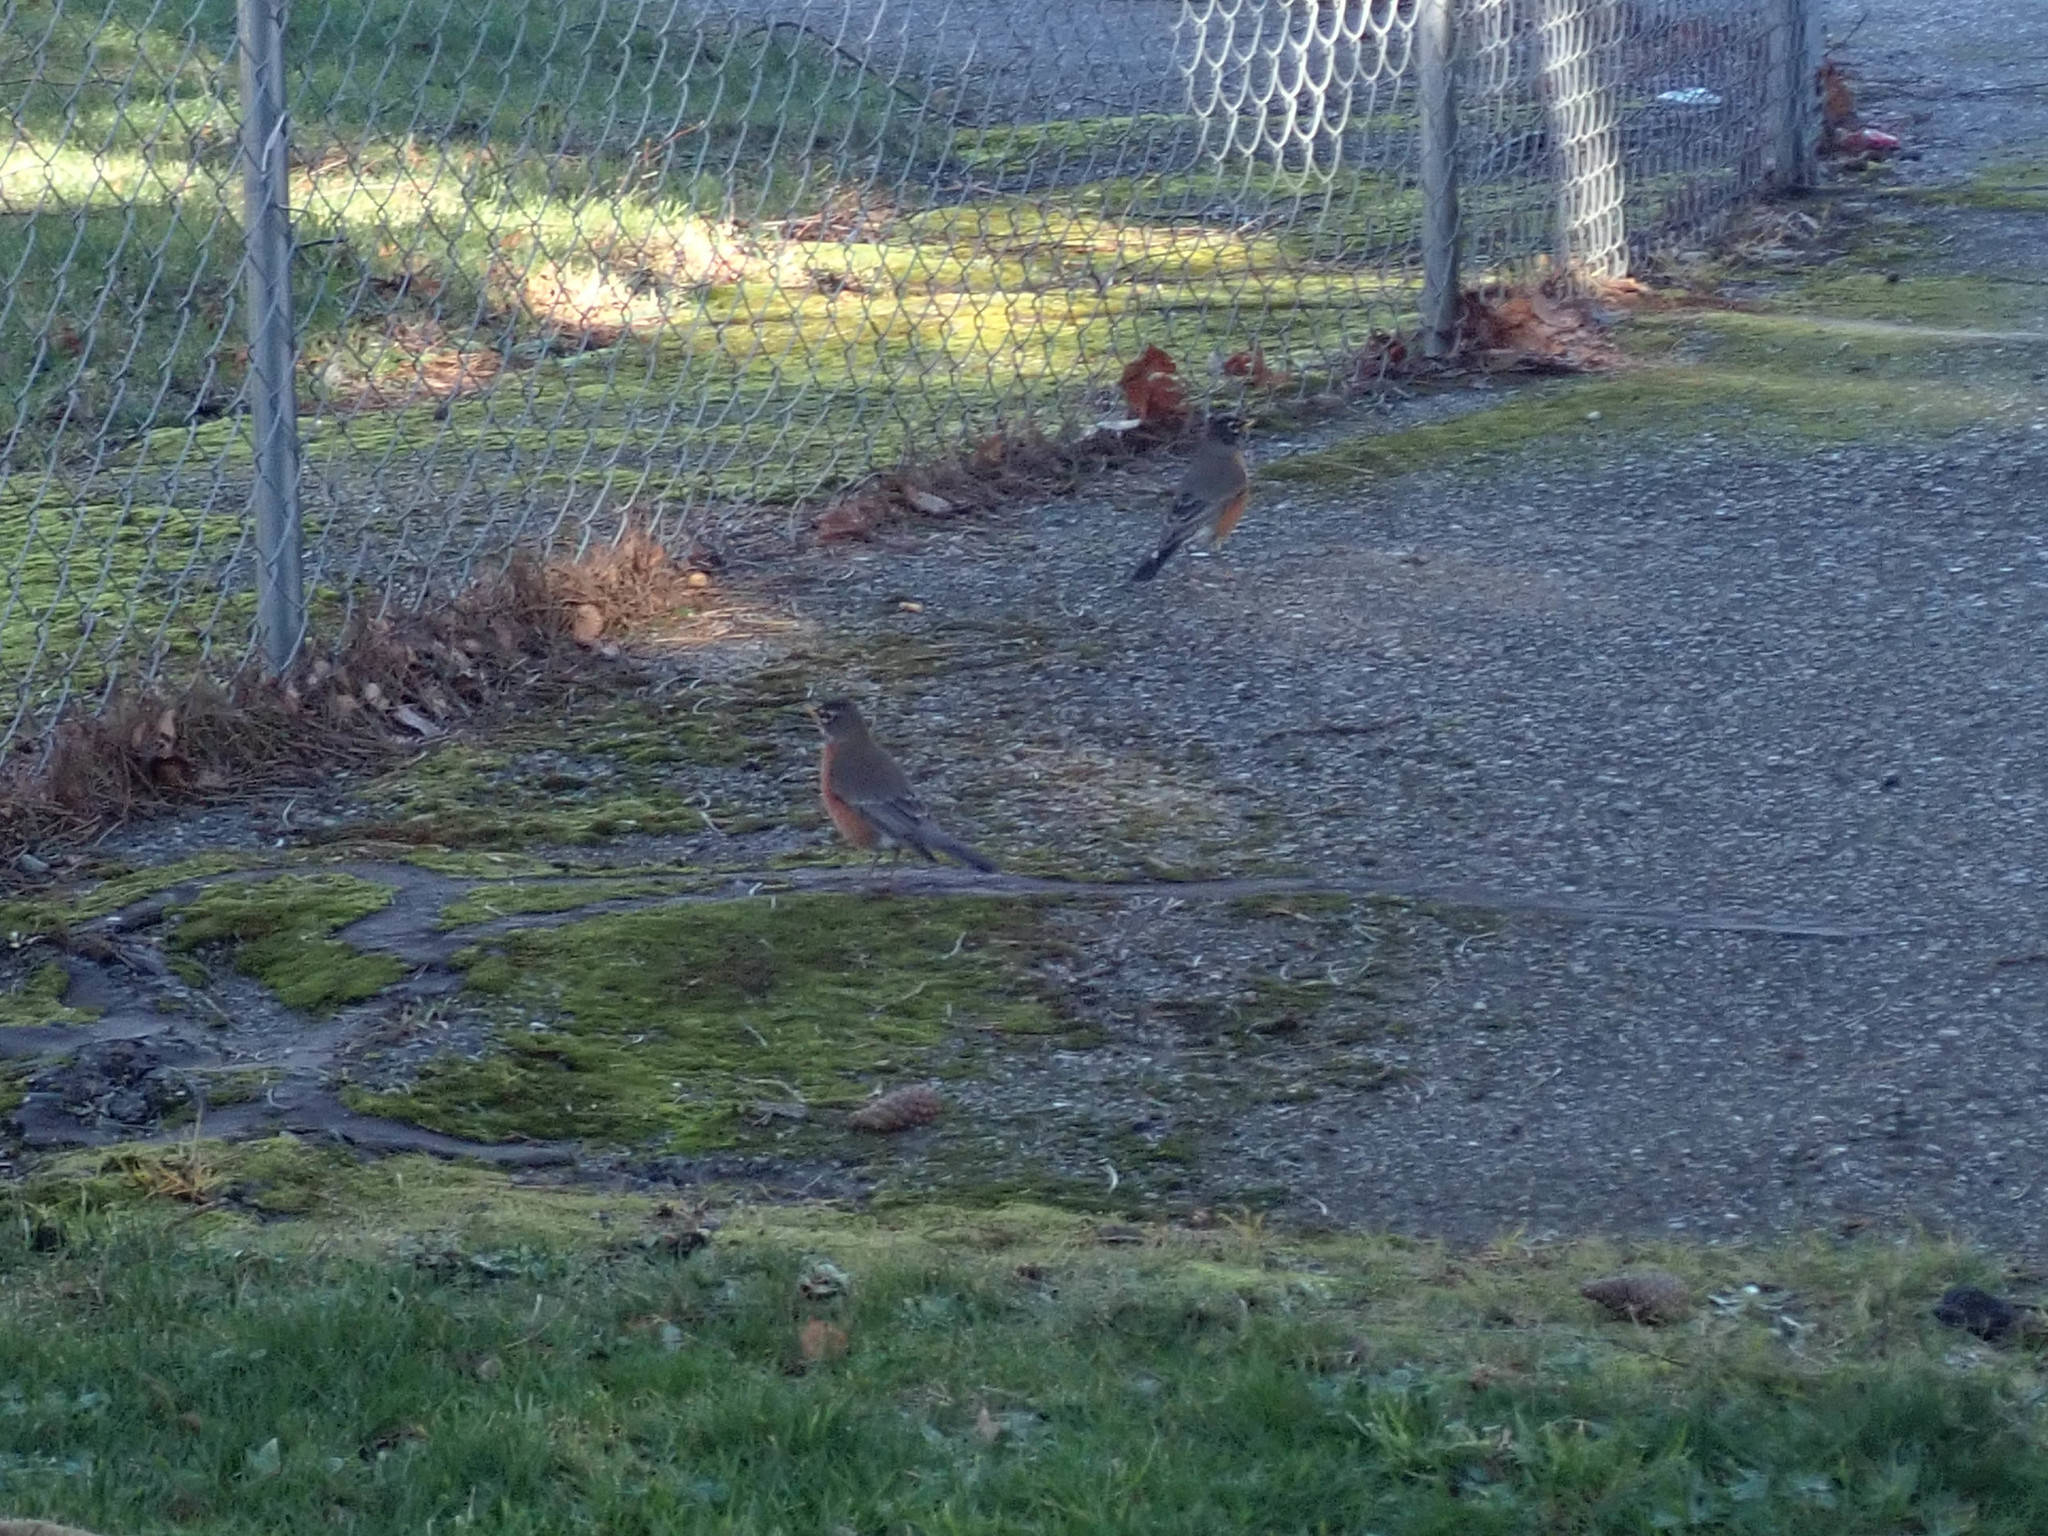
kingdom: Animalia
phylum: Chordata
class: Aves
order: Passeriformes
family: Turdidae
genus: Turdus
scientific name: Turdus migratorius
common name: American robin
